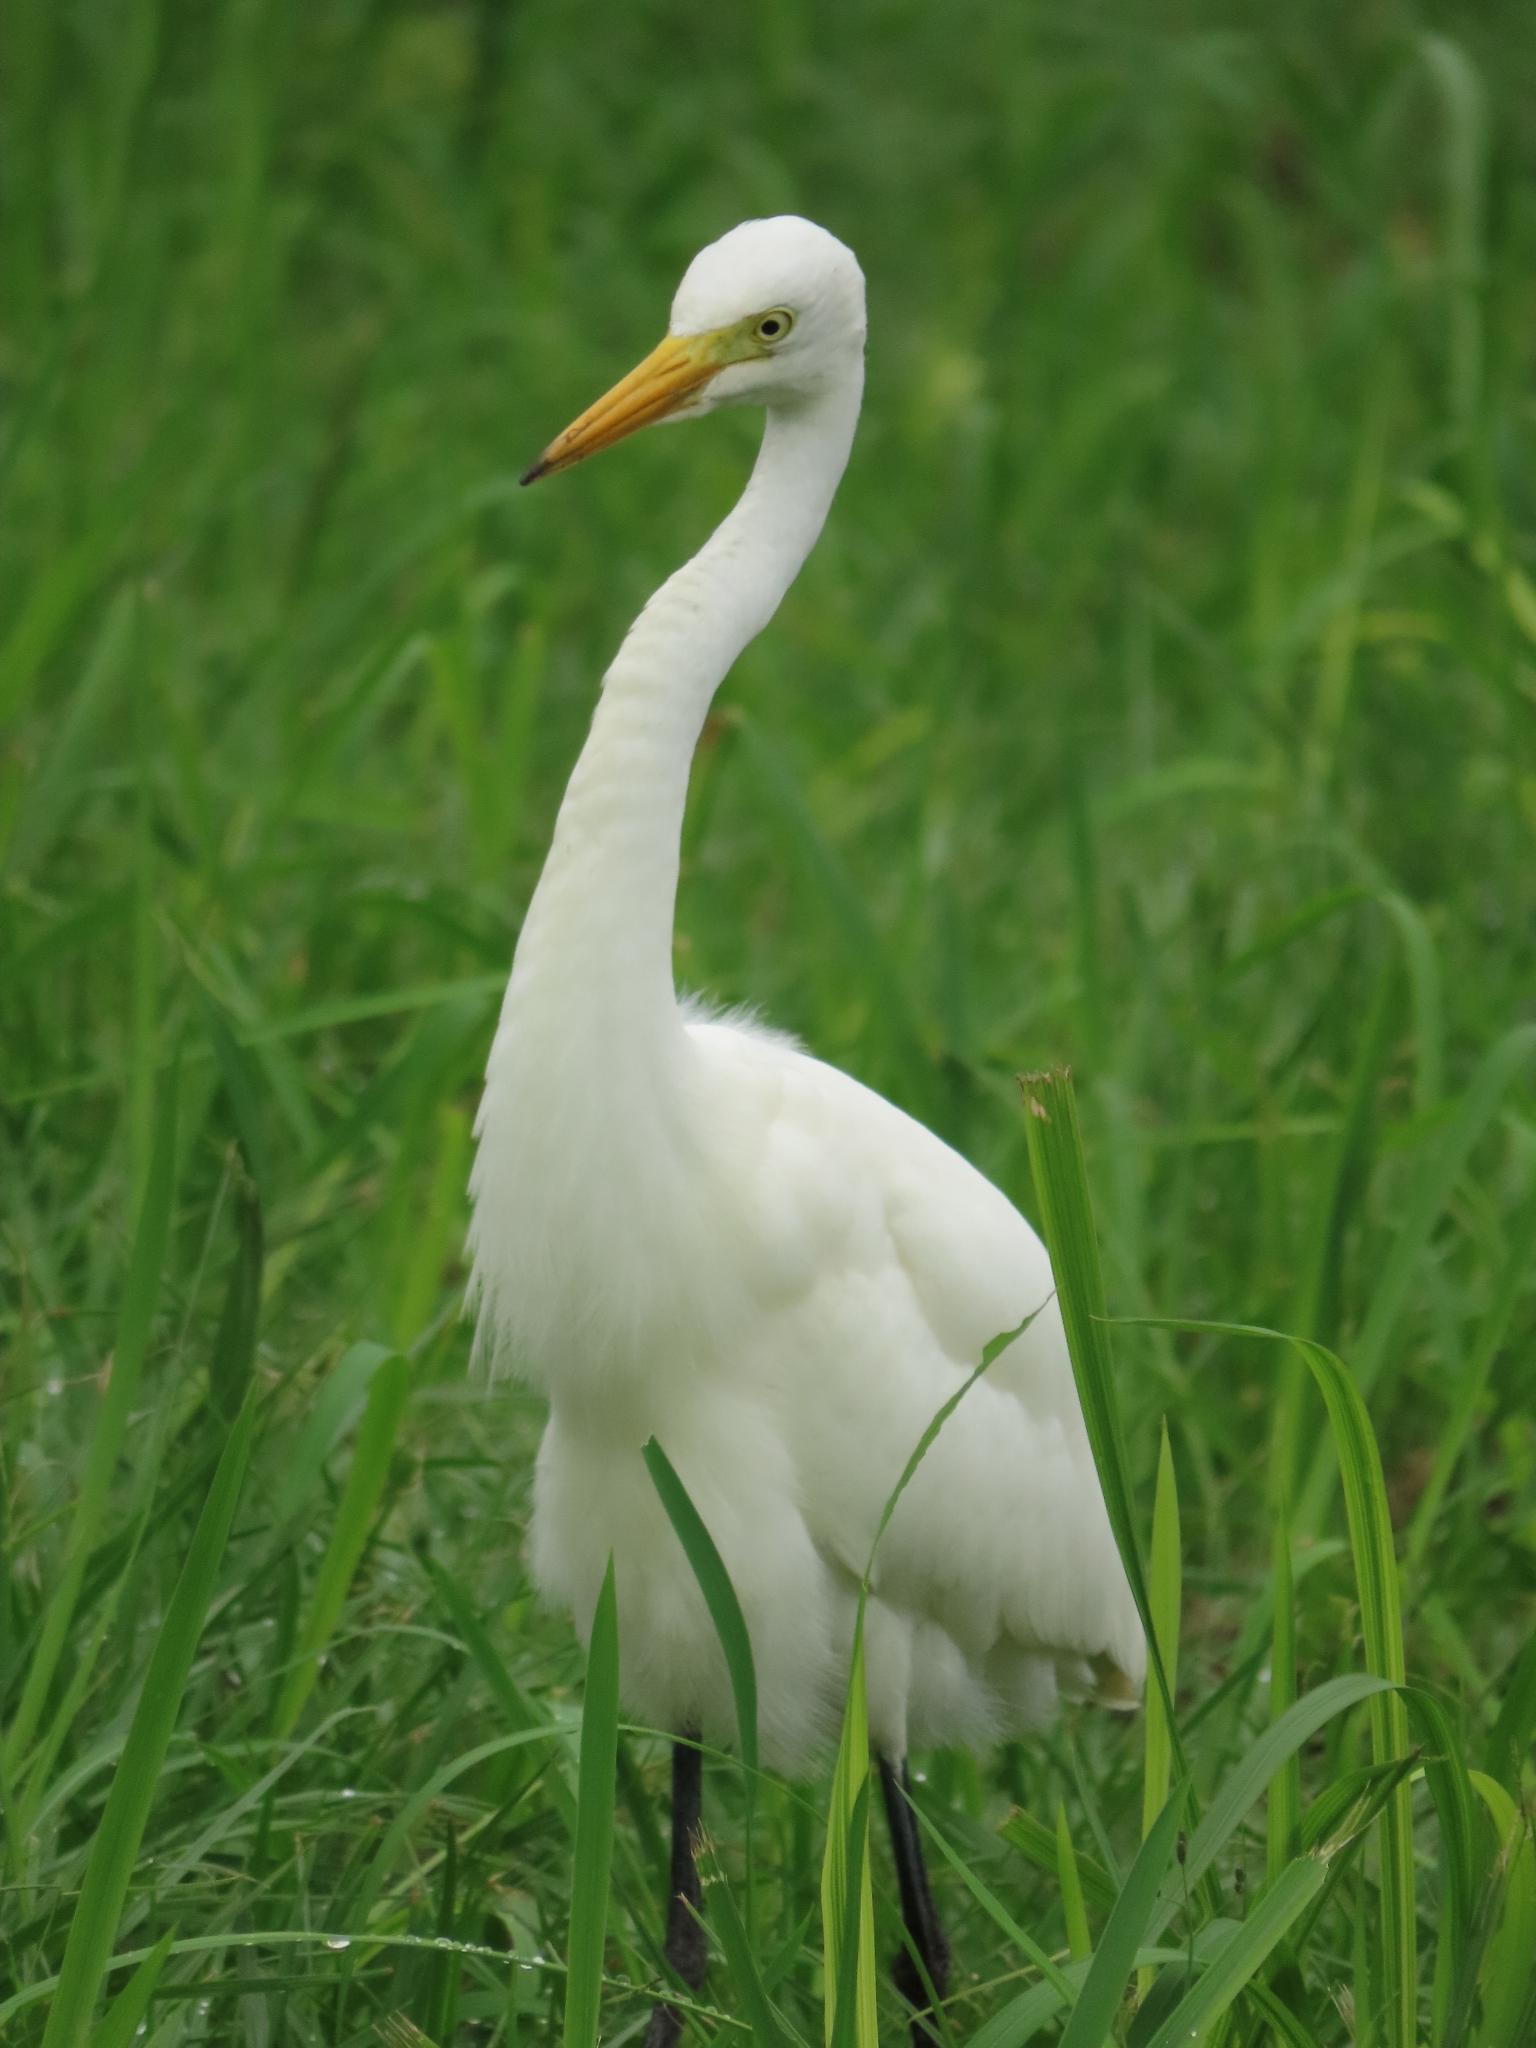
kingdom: Animalia
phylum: Chordata
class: Aves
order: Pelecaniformes
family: Ardeidae
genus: Egretta
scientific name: Egretta intermedia
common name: Intermediate egret
